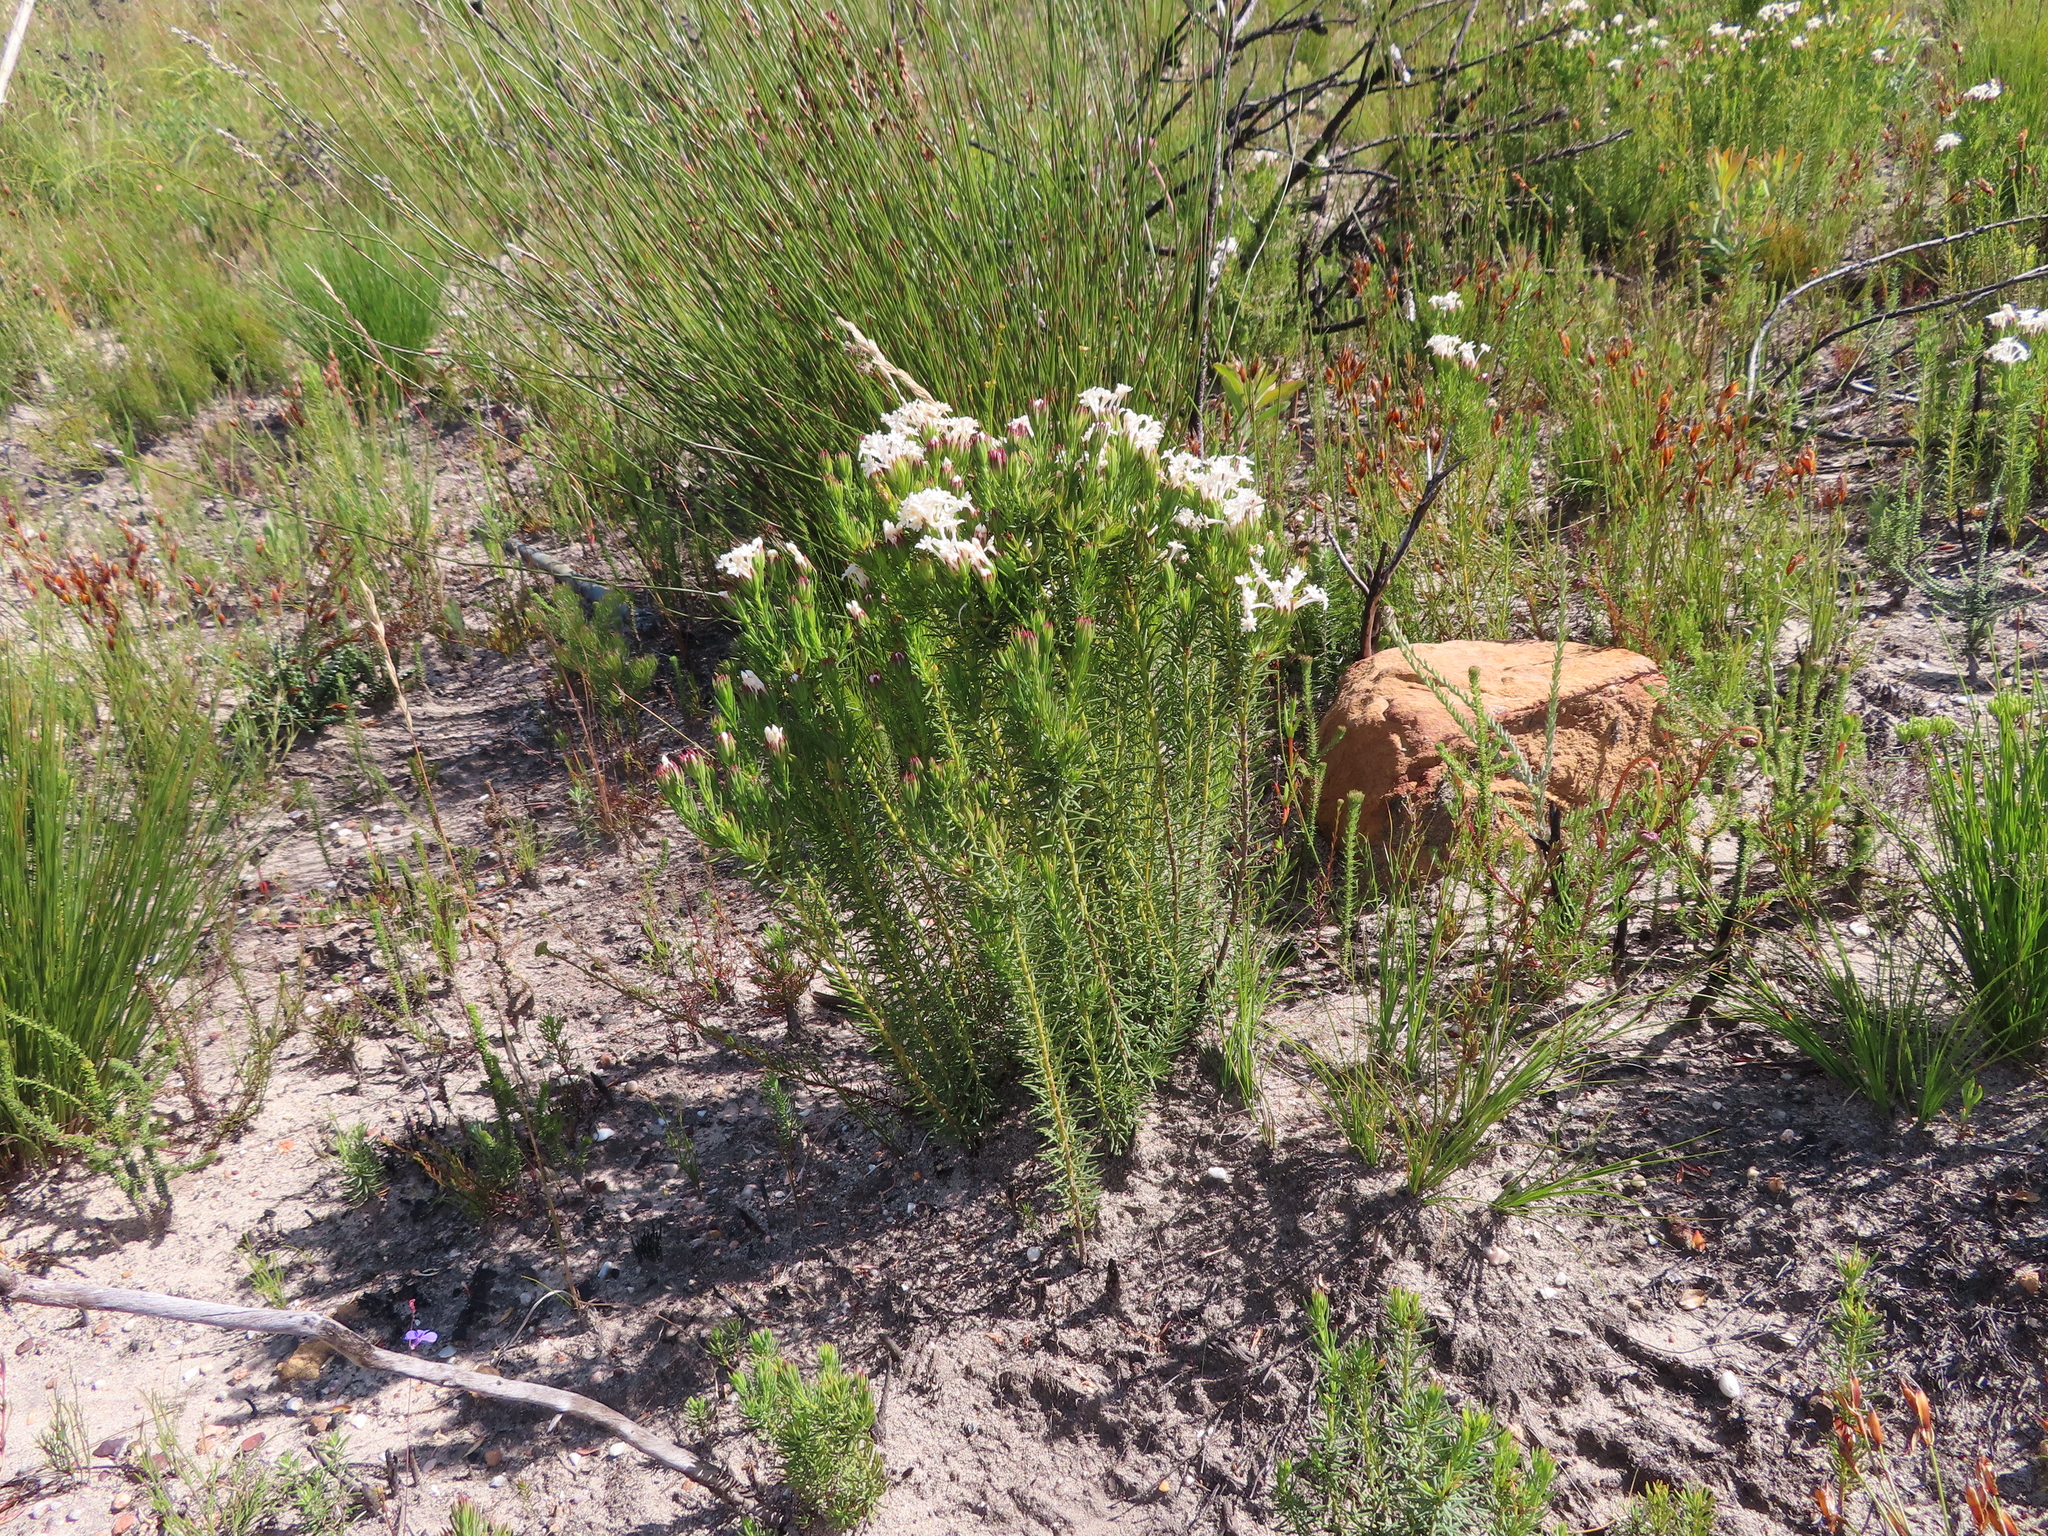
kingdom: Plantae
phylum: Tracheophyta
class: Magnoliopsida
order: Malvales
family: Thymelaeaceae
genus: Gnidia
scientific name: Gnidia pinifolia
